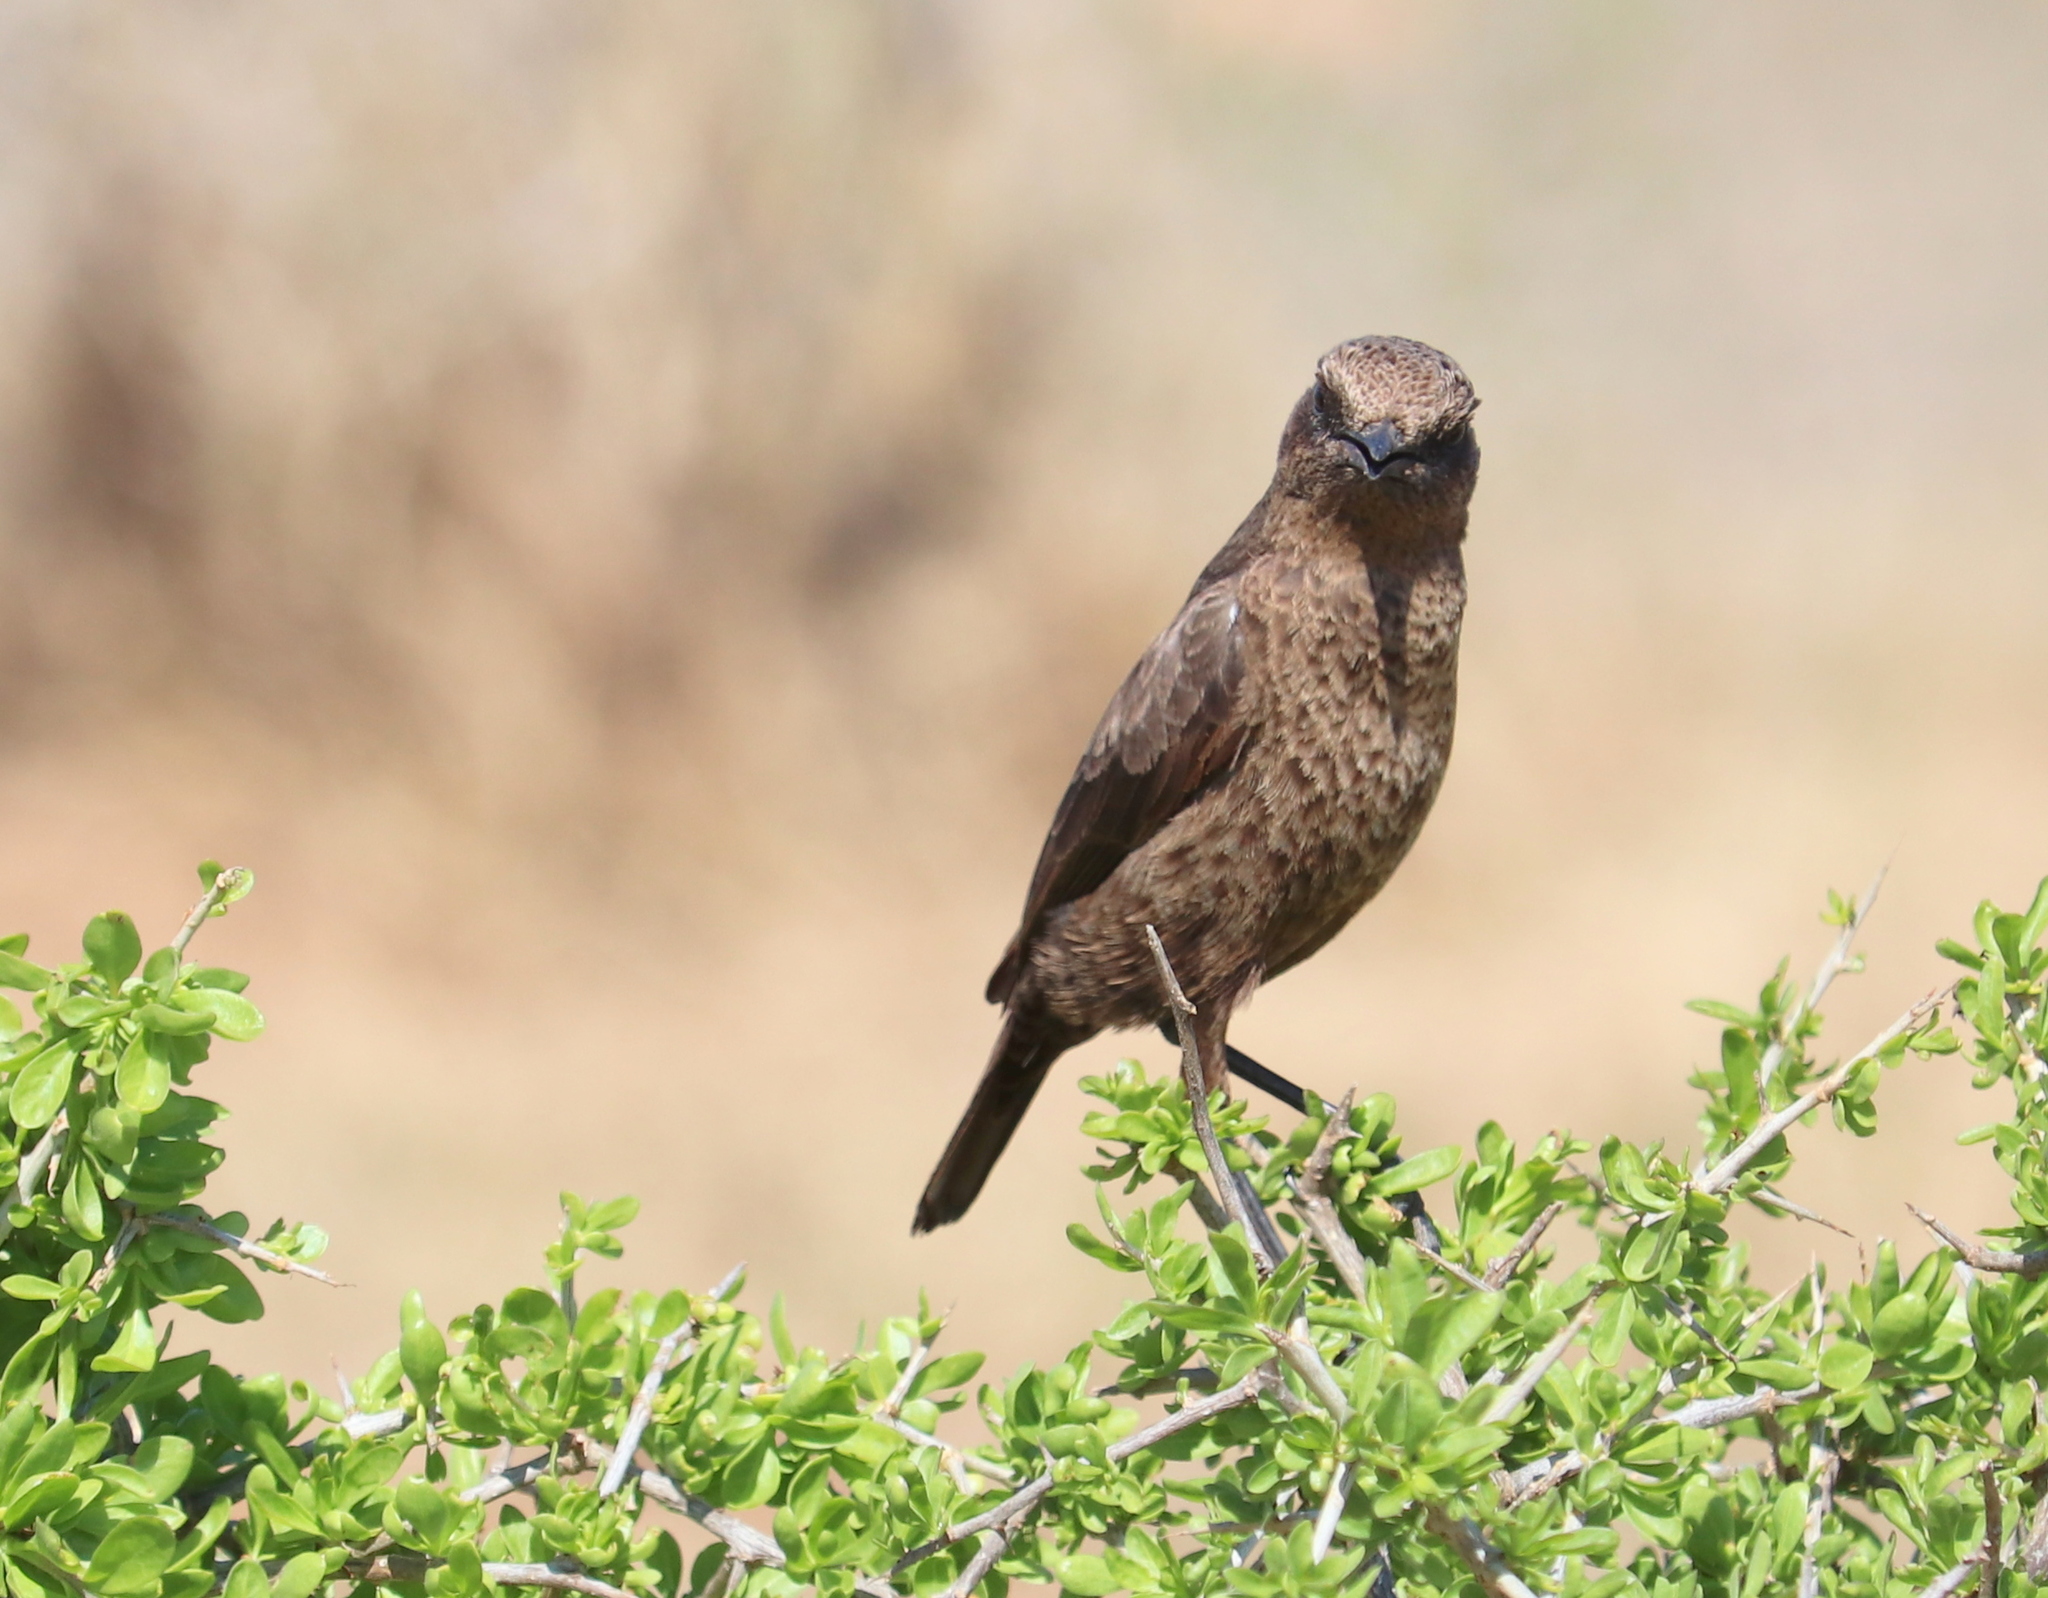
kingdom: Animalia
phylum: Chordata
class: Aves
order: Passeriformes
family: Muscicapidae
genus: Myrmecocichla
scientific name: Myrmecocichla formicivora
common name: Ant-eating chat
